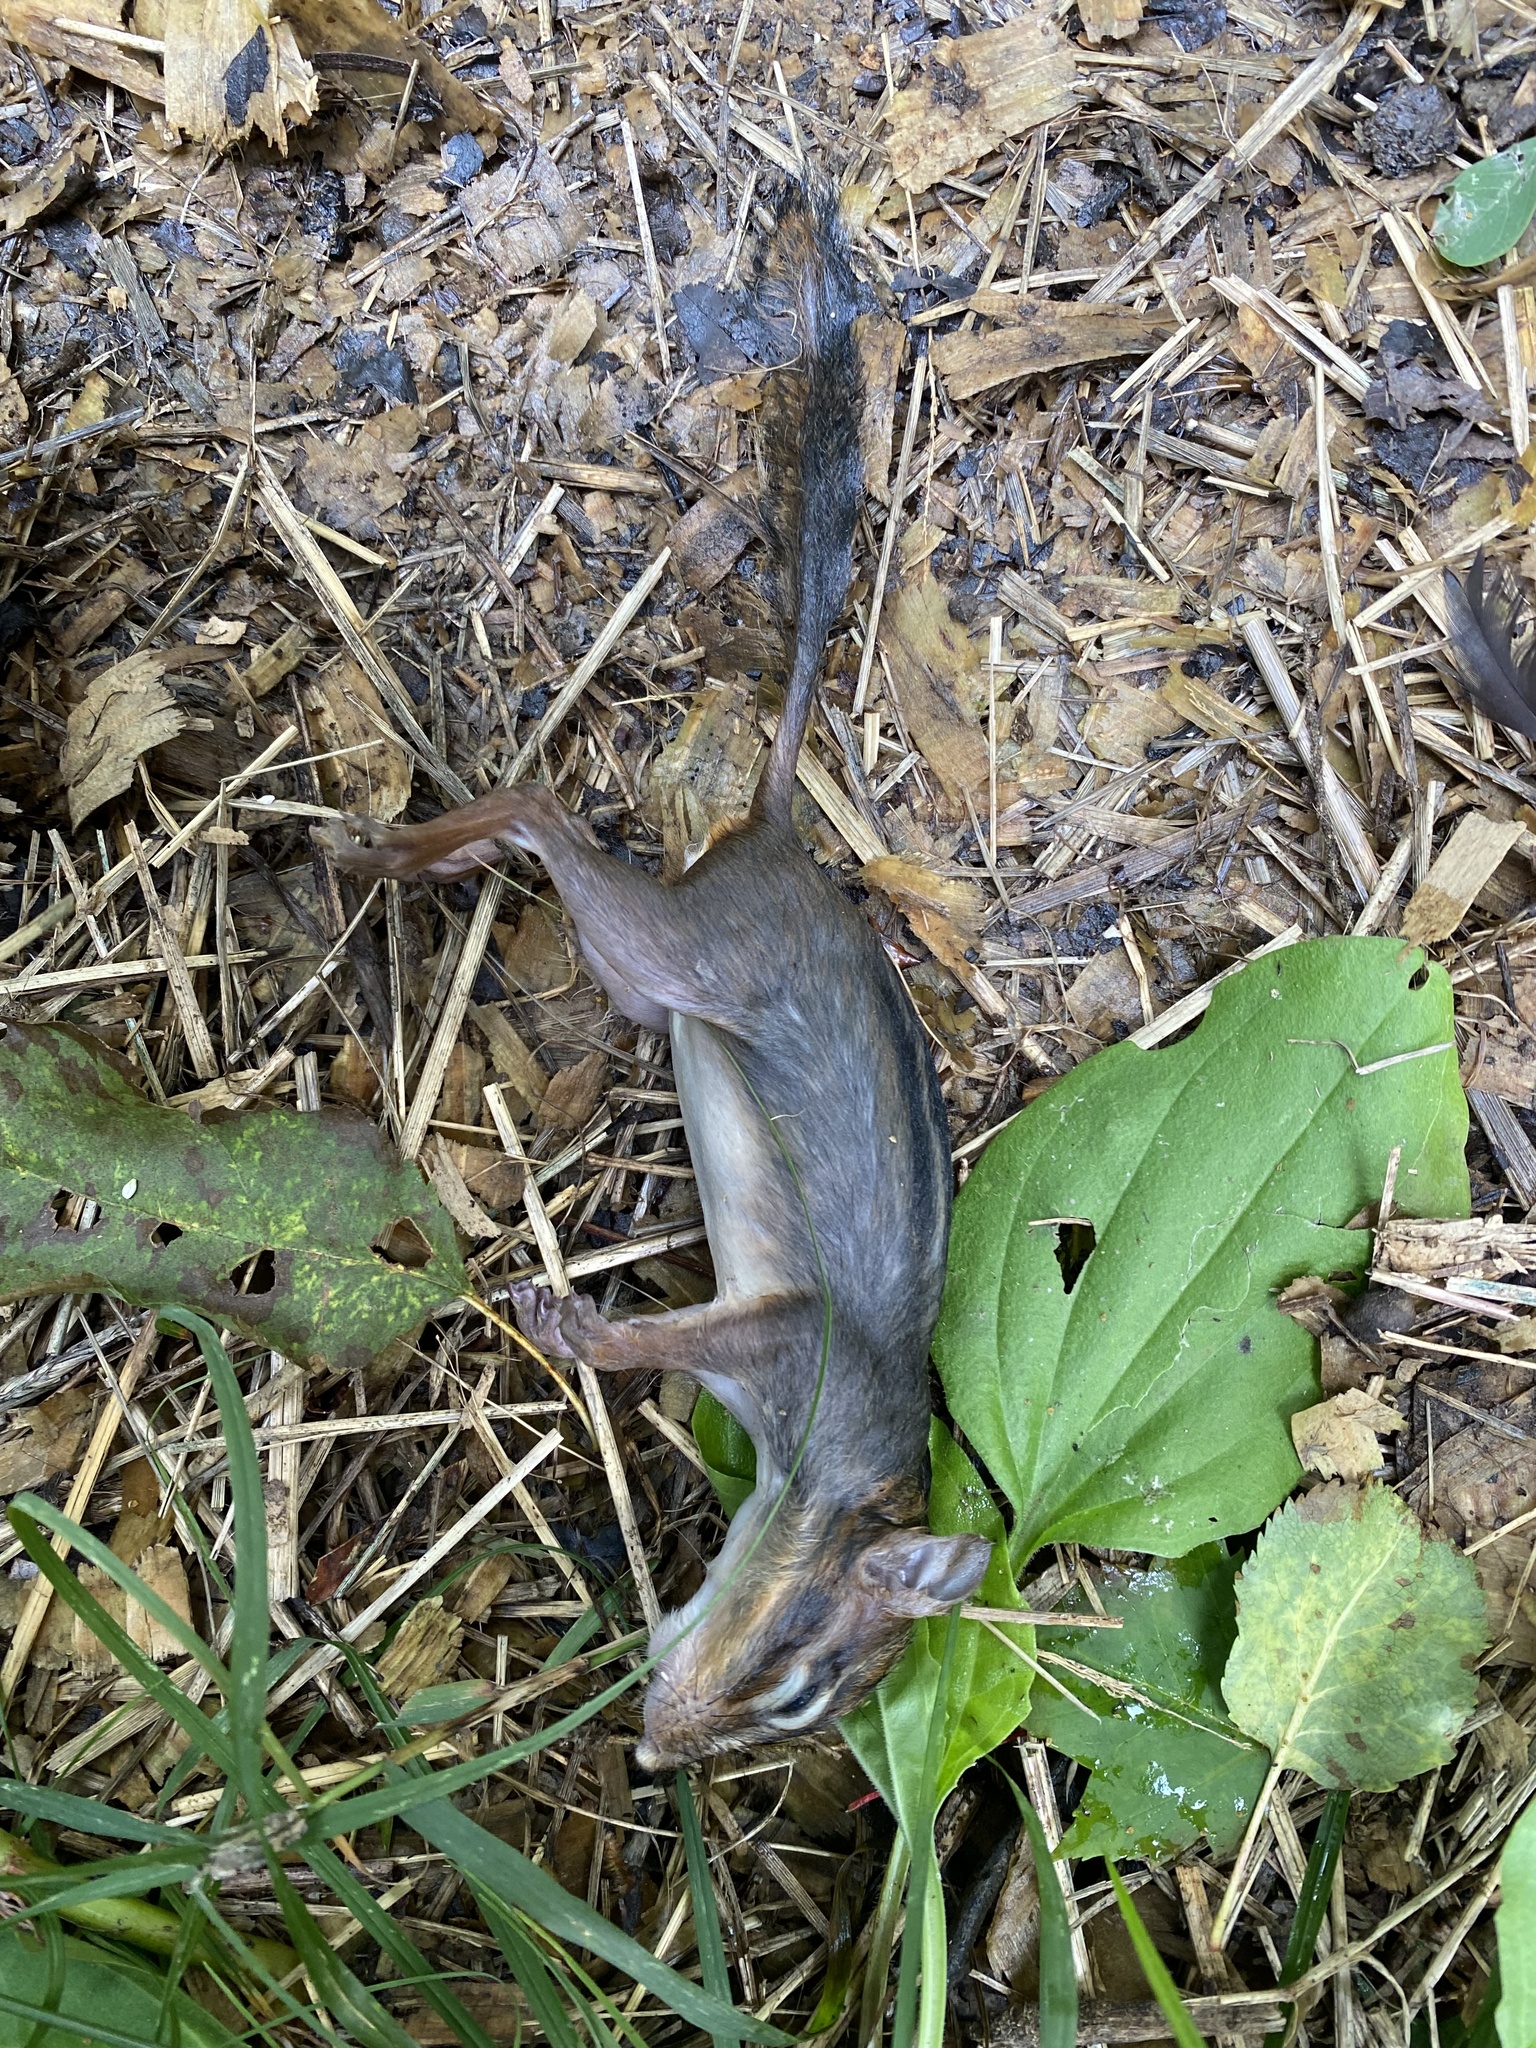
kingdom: Animalia
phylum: Chordata
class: Mammalia
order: Rodentia
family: Sciuridae
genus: Tamias
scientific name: Tamias striatus
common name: Eastern chipmunk
